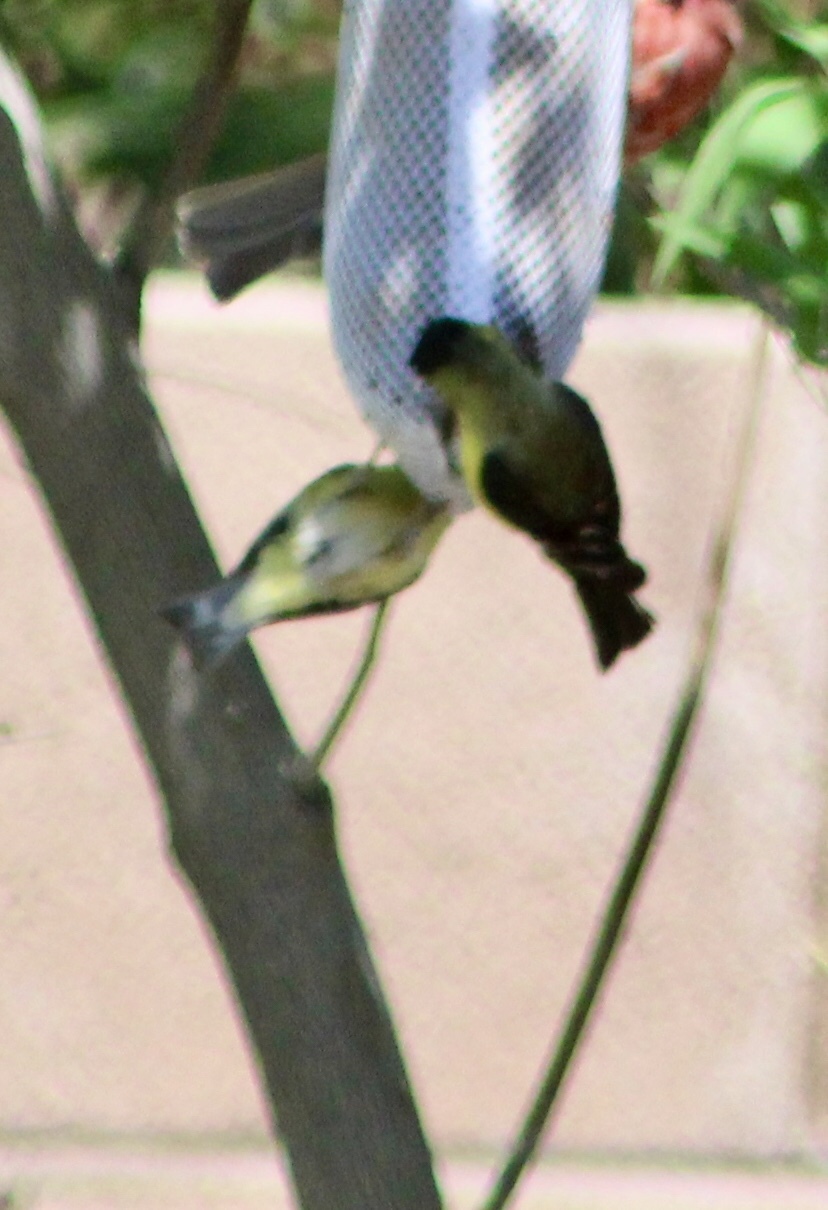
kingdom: Animalia
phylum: Chordata
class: Aves
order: Passeriformes
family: Fringillidae
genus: Spinus
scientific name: Spinus psaltria
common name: Lesser goldfinch
